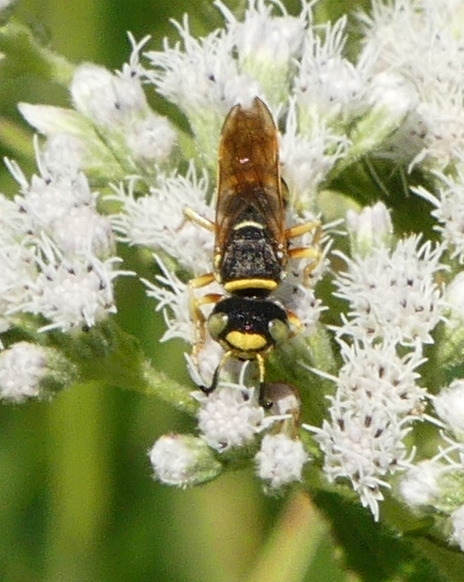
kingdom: Animalia
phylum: Arthropoda
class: Insecta
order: Hymenoptera
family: Crabronidae
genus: Philanthus
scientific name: Philanthus ventilabris
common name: Bee-killer wasp
